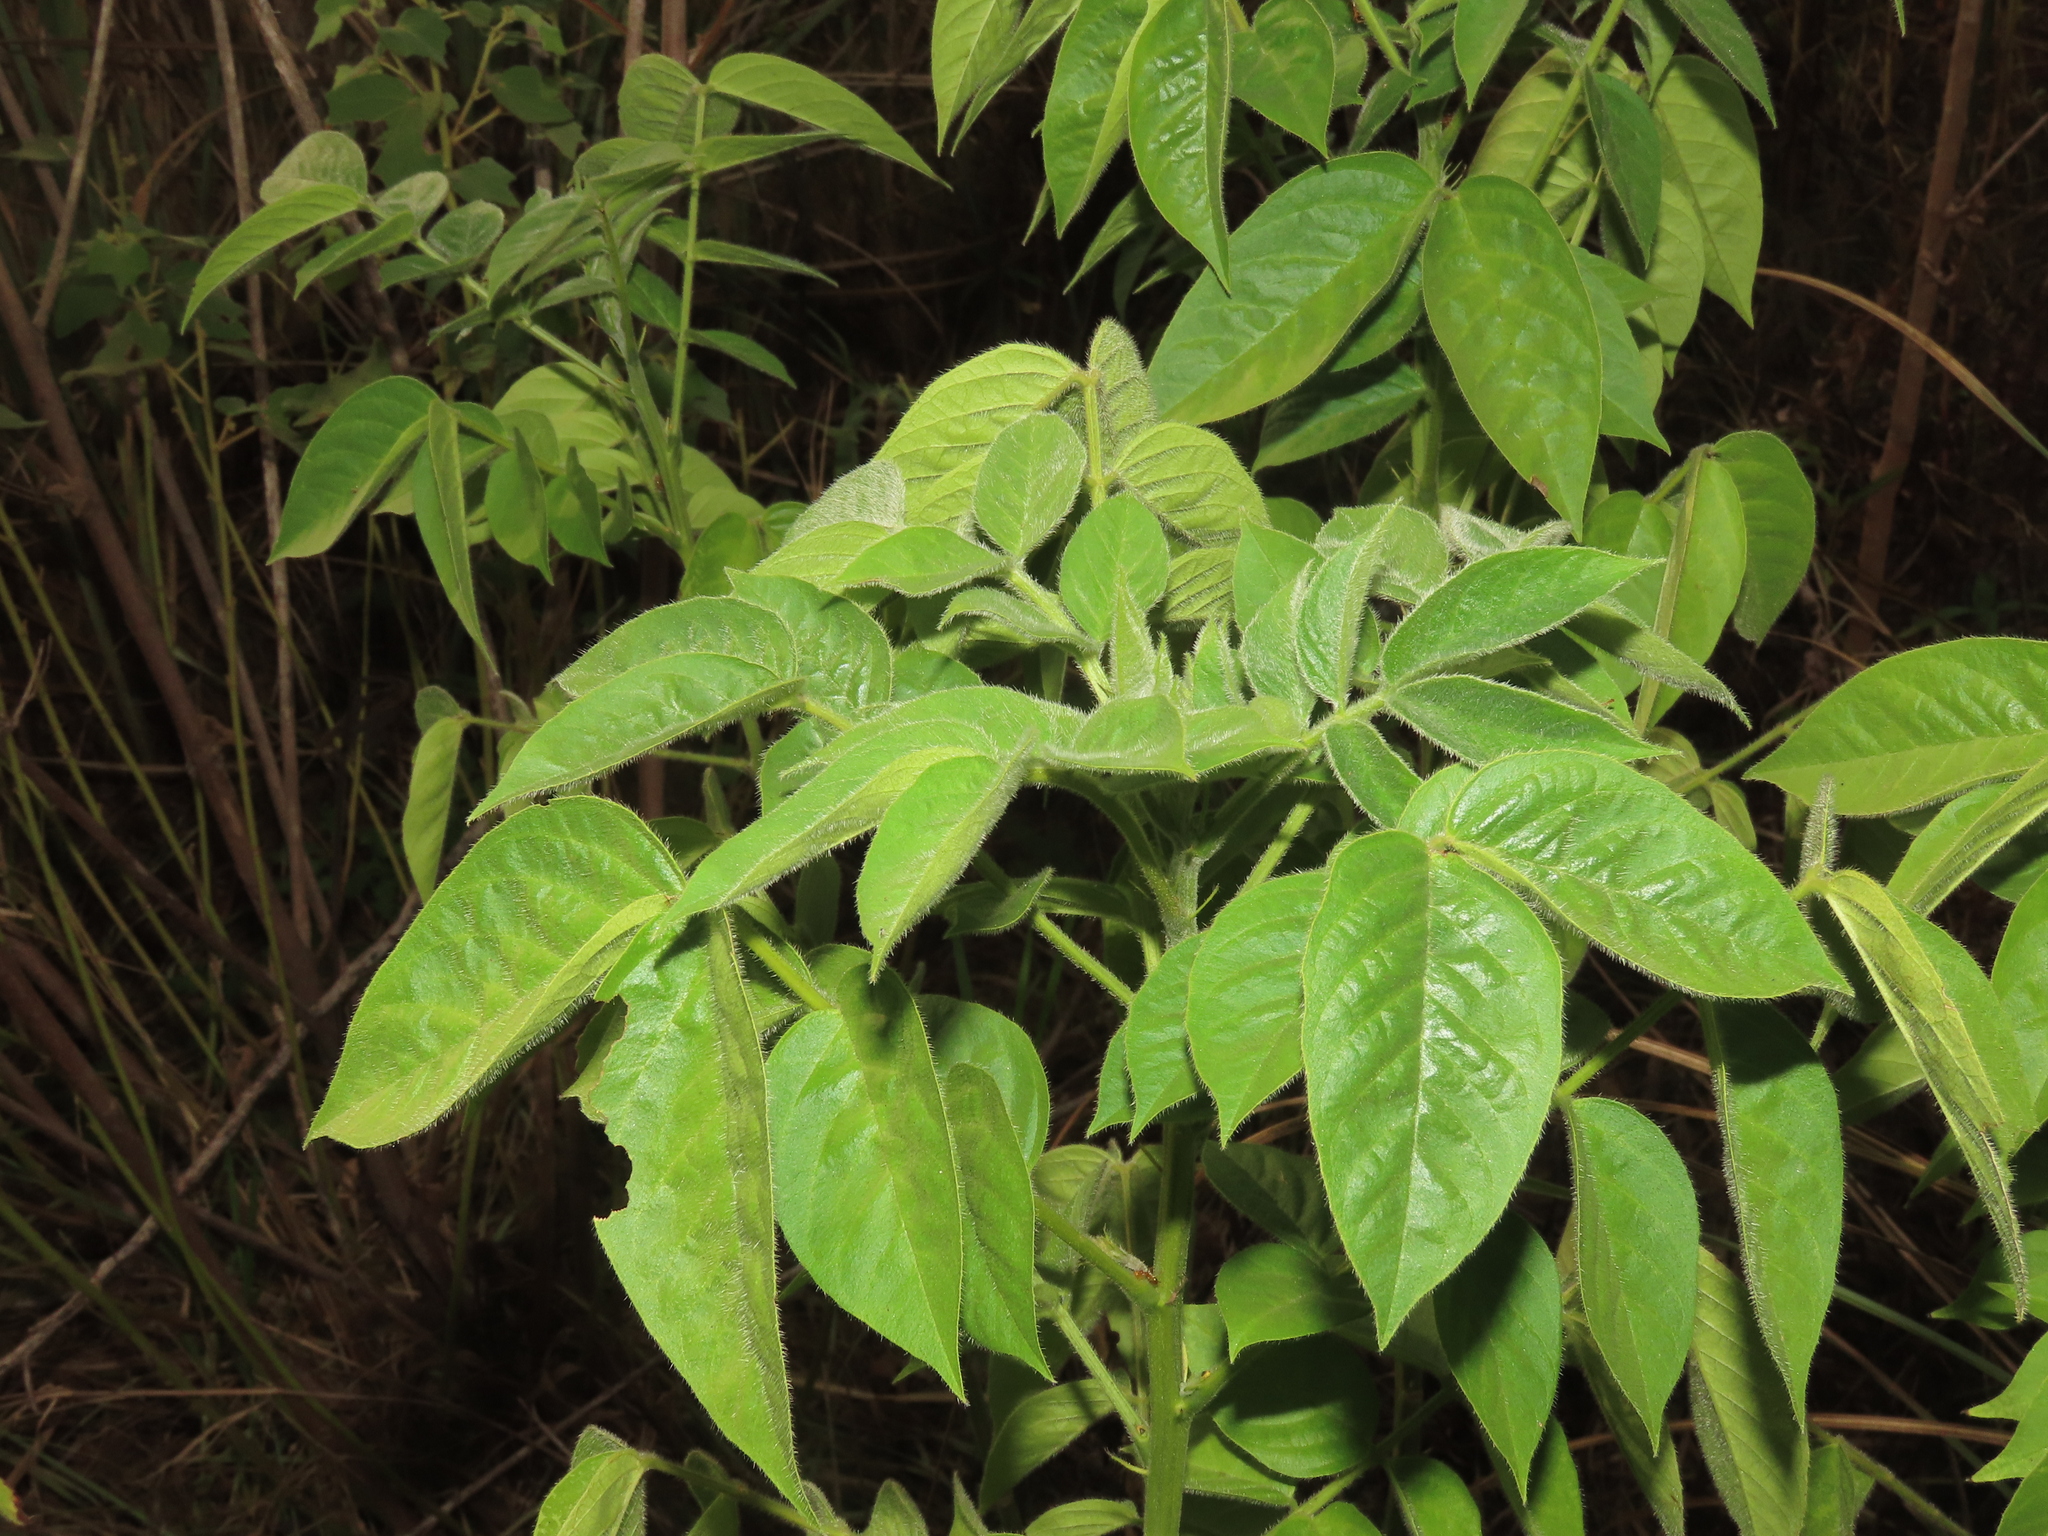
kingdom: Plantae
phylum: Tracheophyta
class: Magnoliopsida
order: Fabales
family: Fabaceae
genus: Senna
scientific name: Senna hirsuta
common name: Woolly senna
